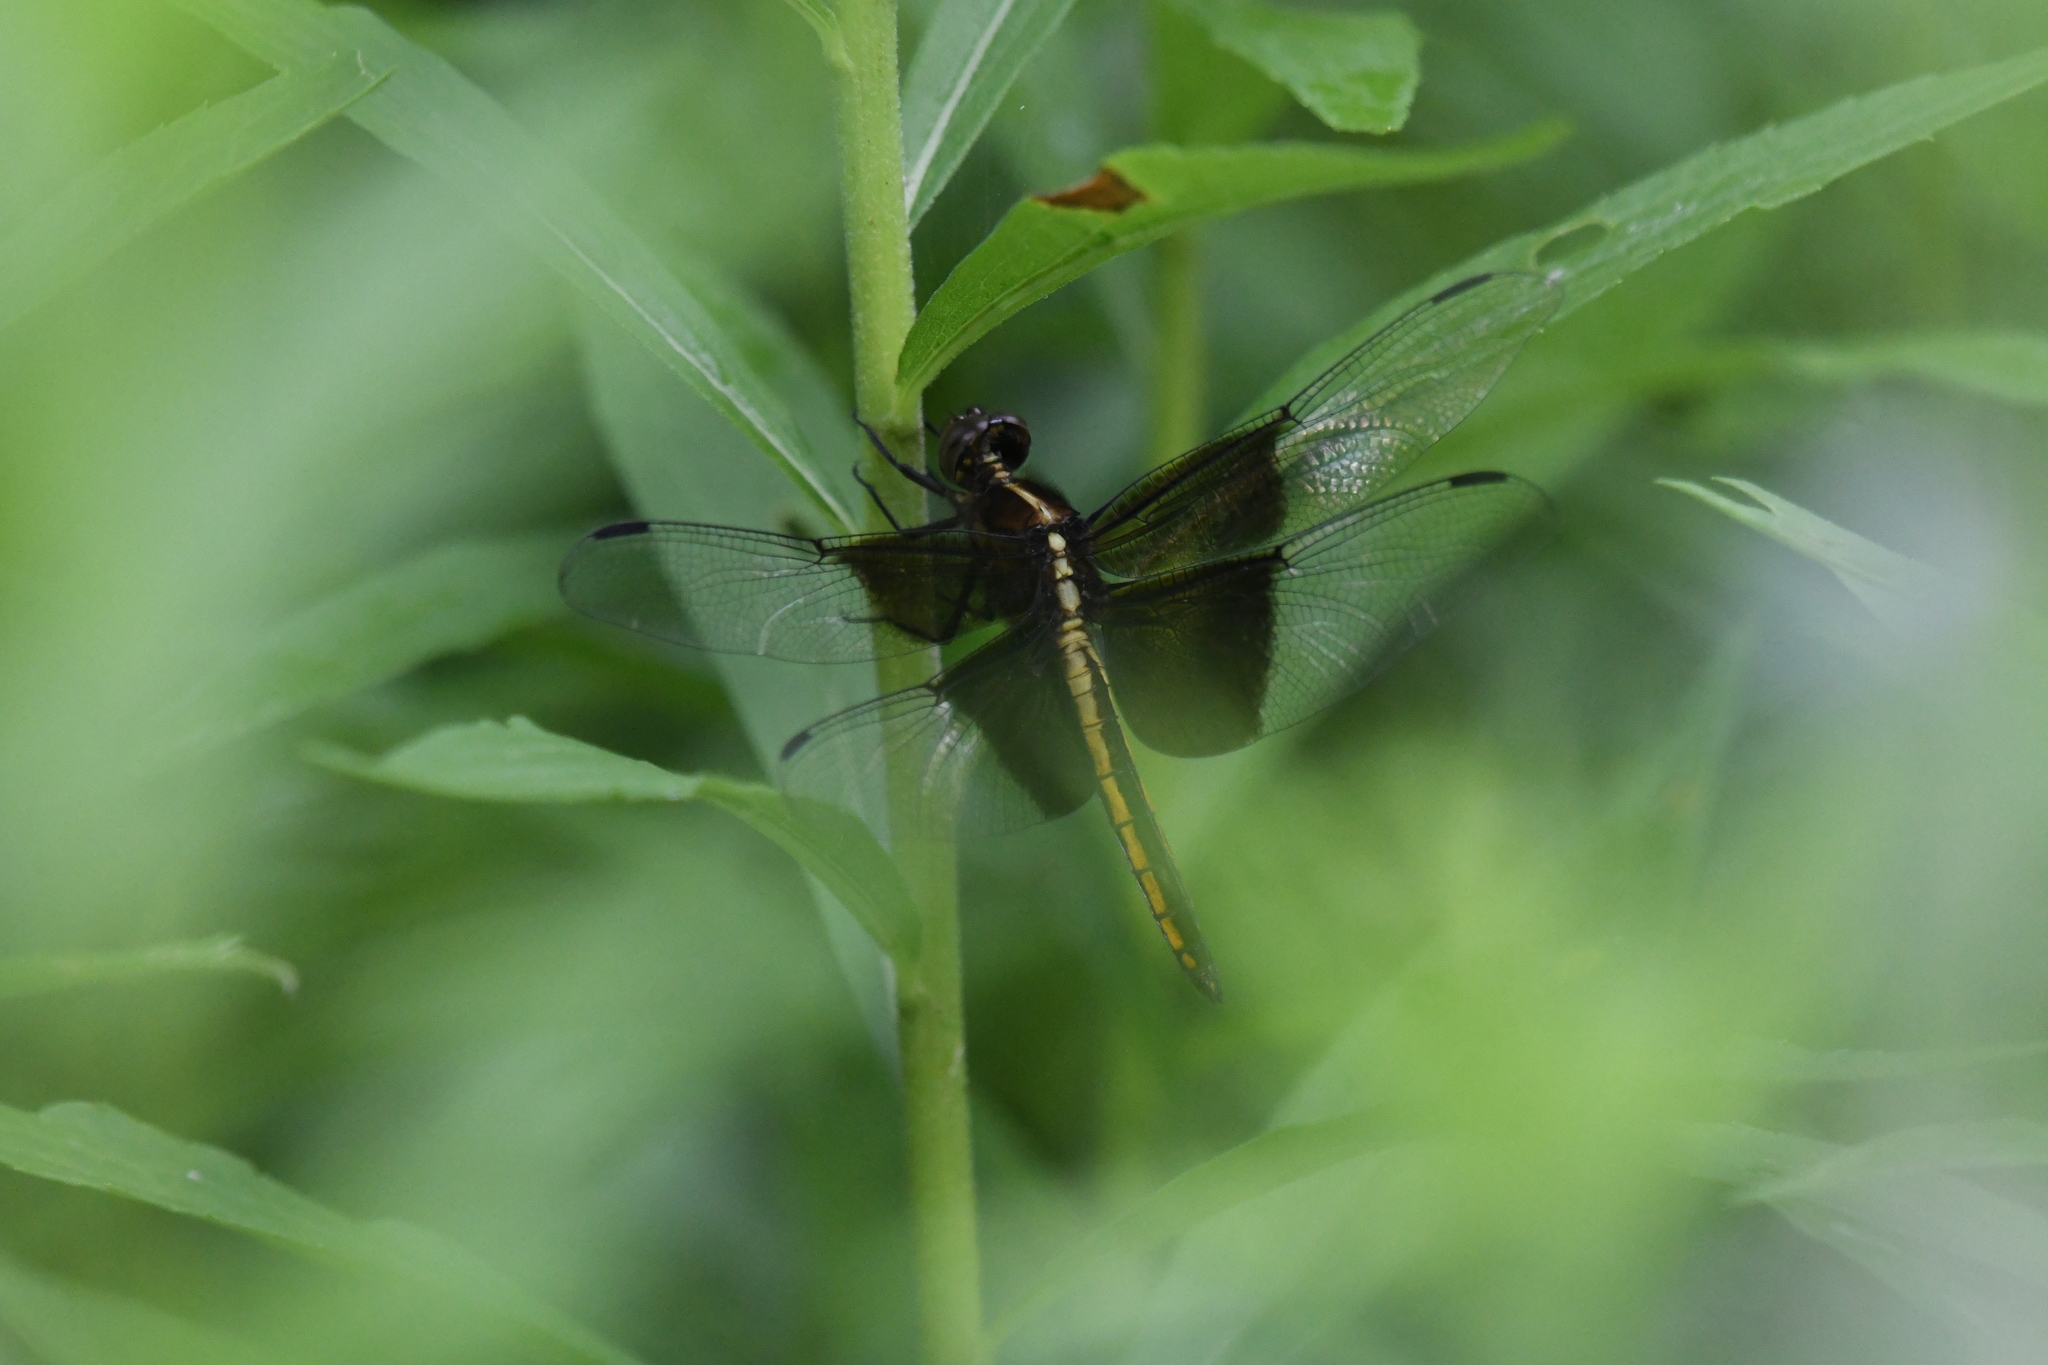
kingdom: Animalia
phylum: Arthropoda
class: Insecta
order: Odonata
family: Libellulidae
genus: Libellula
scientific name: Libellula luctuosa
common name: Widow skimmer
